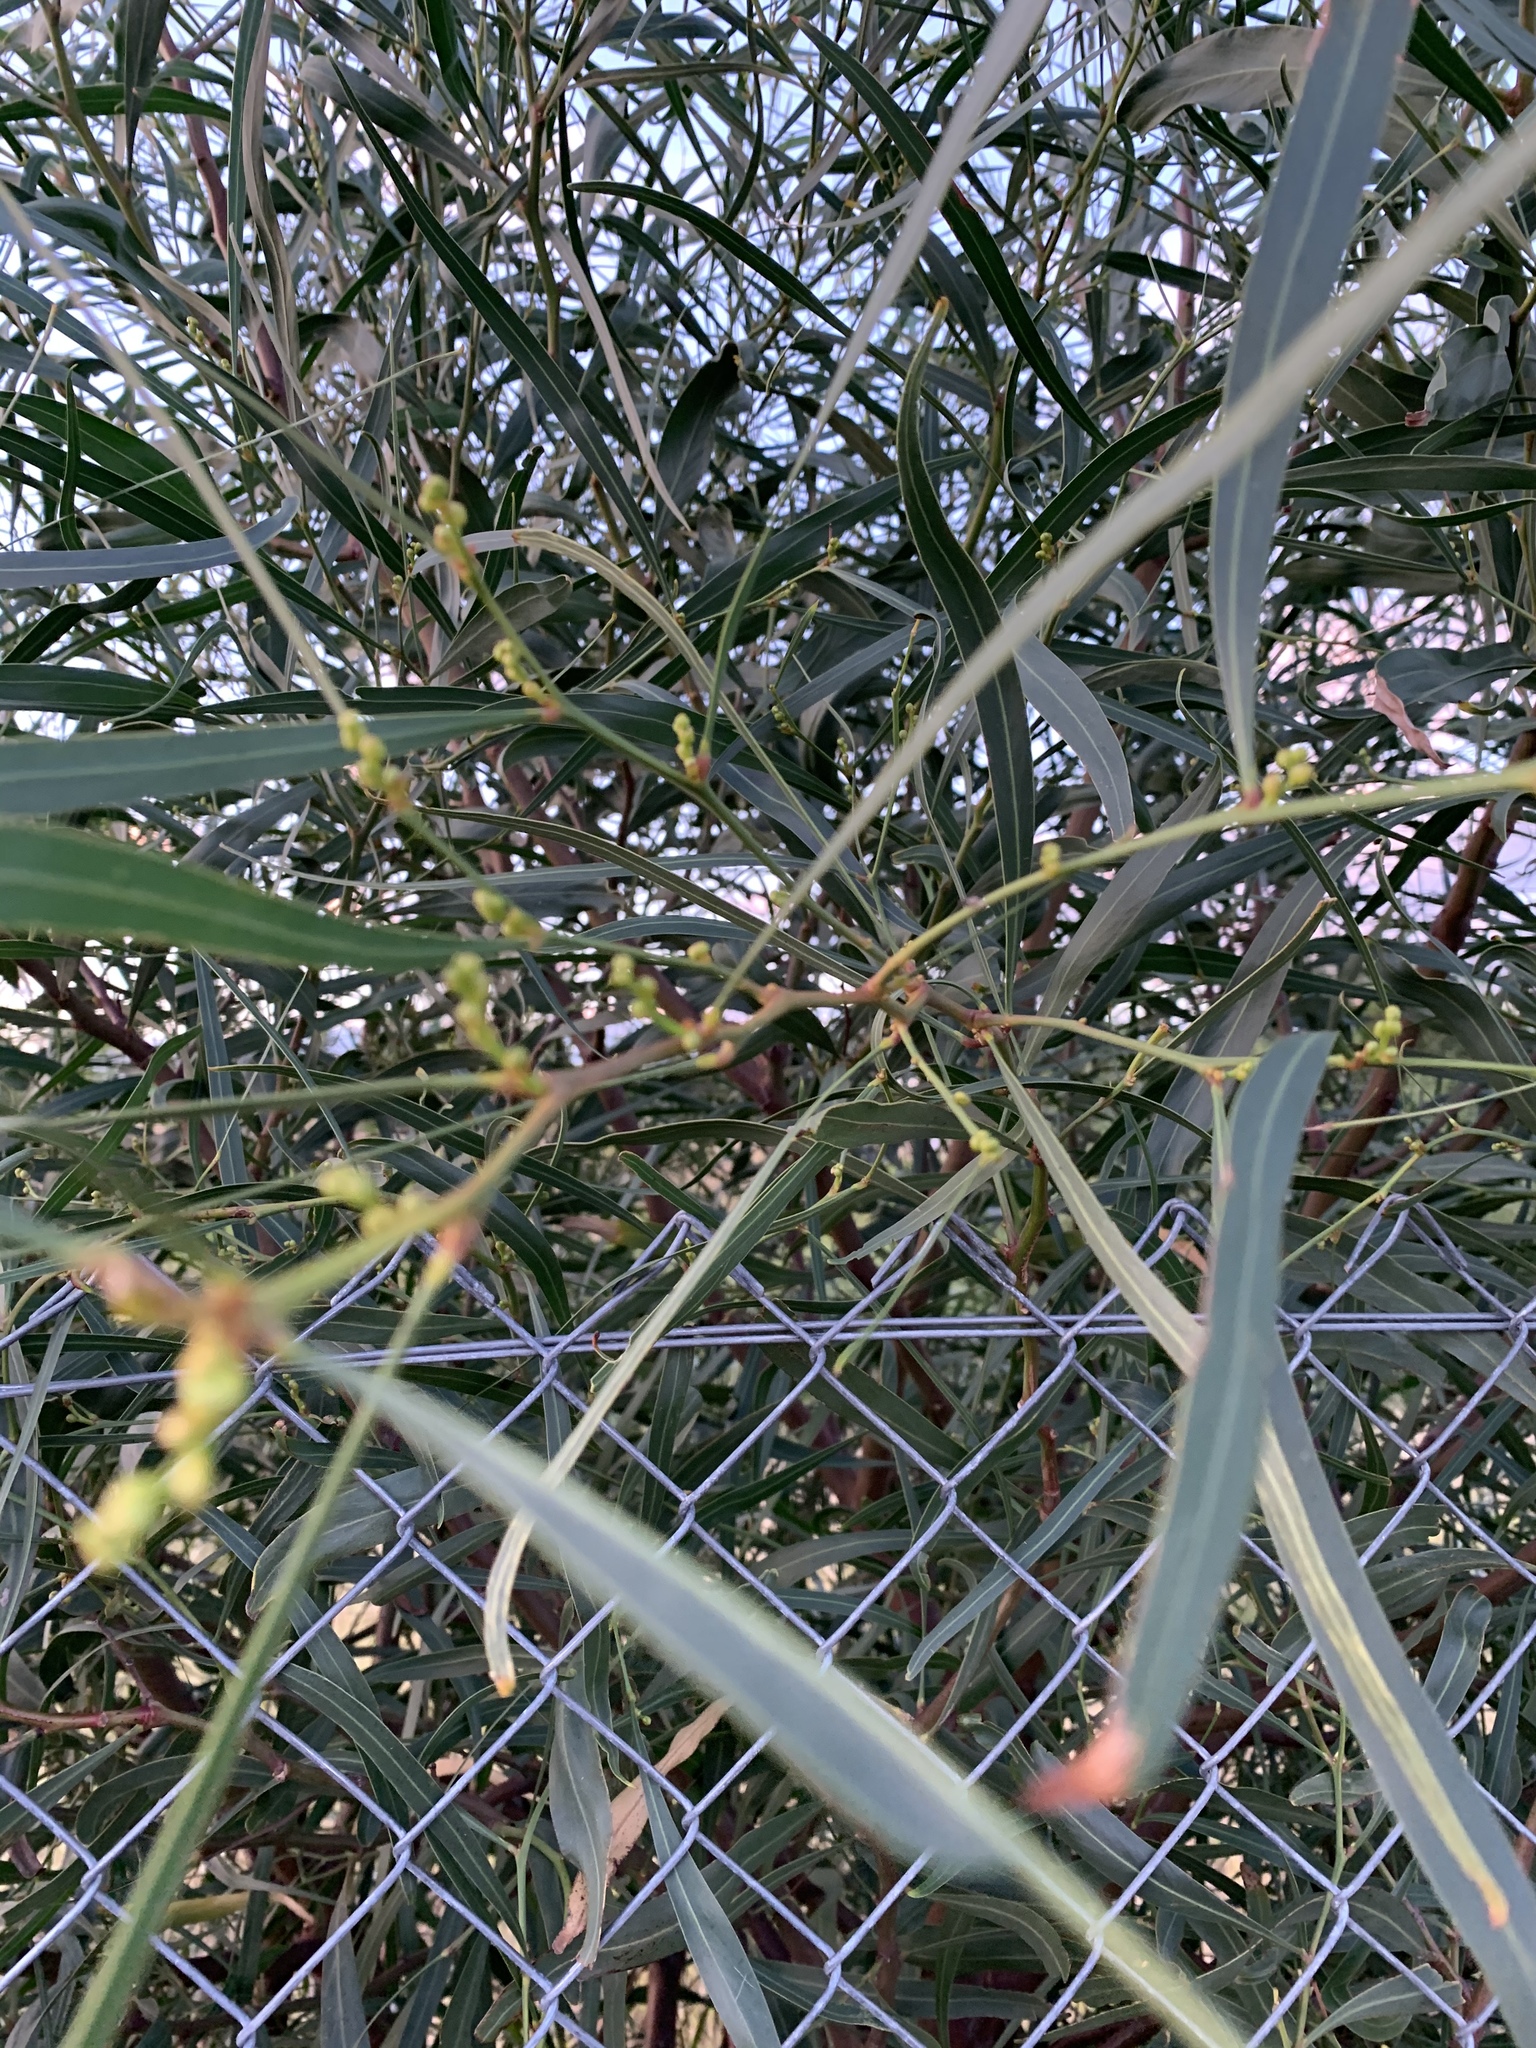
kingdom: Plantae
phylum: Tracheophyta
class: Magnoliopsida
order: Fabales
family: Fabaceae
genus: Acacia
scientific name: Acacia saligna
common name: Orange wattle
